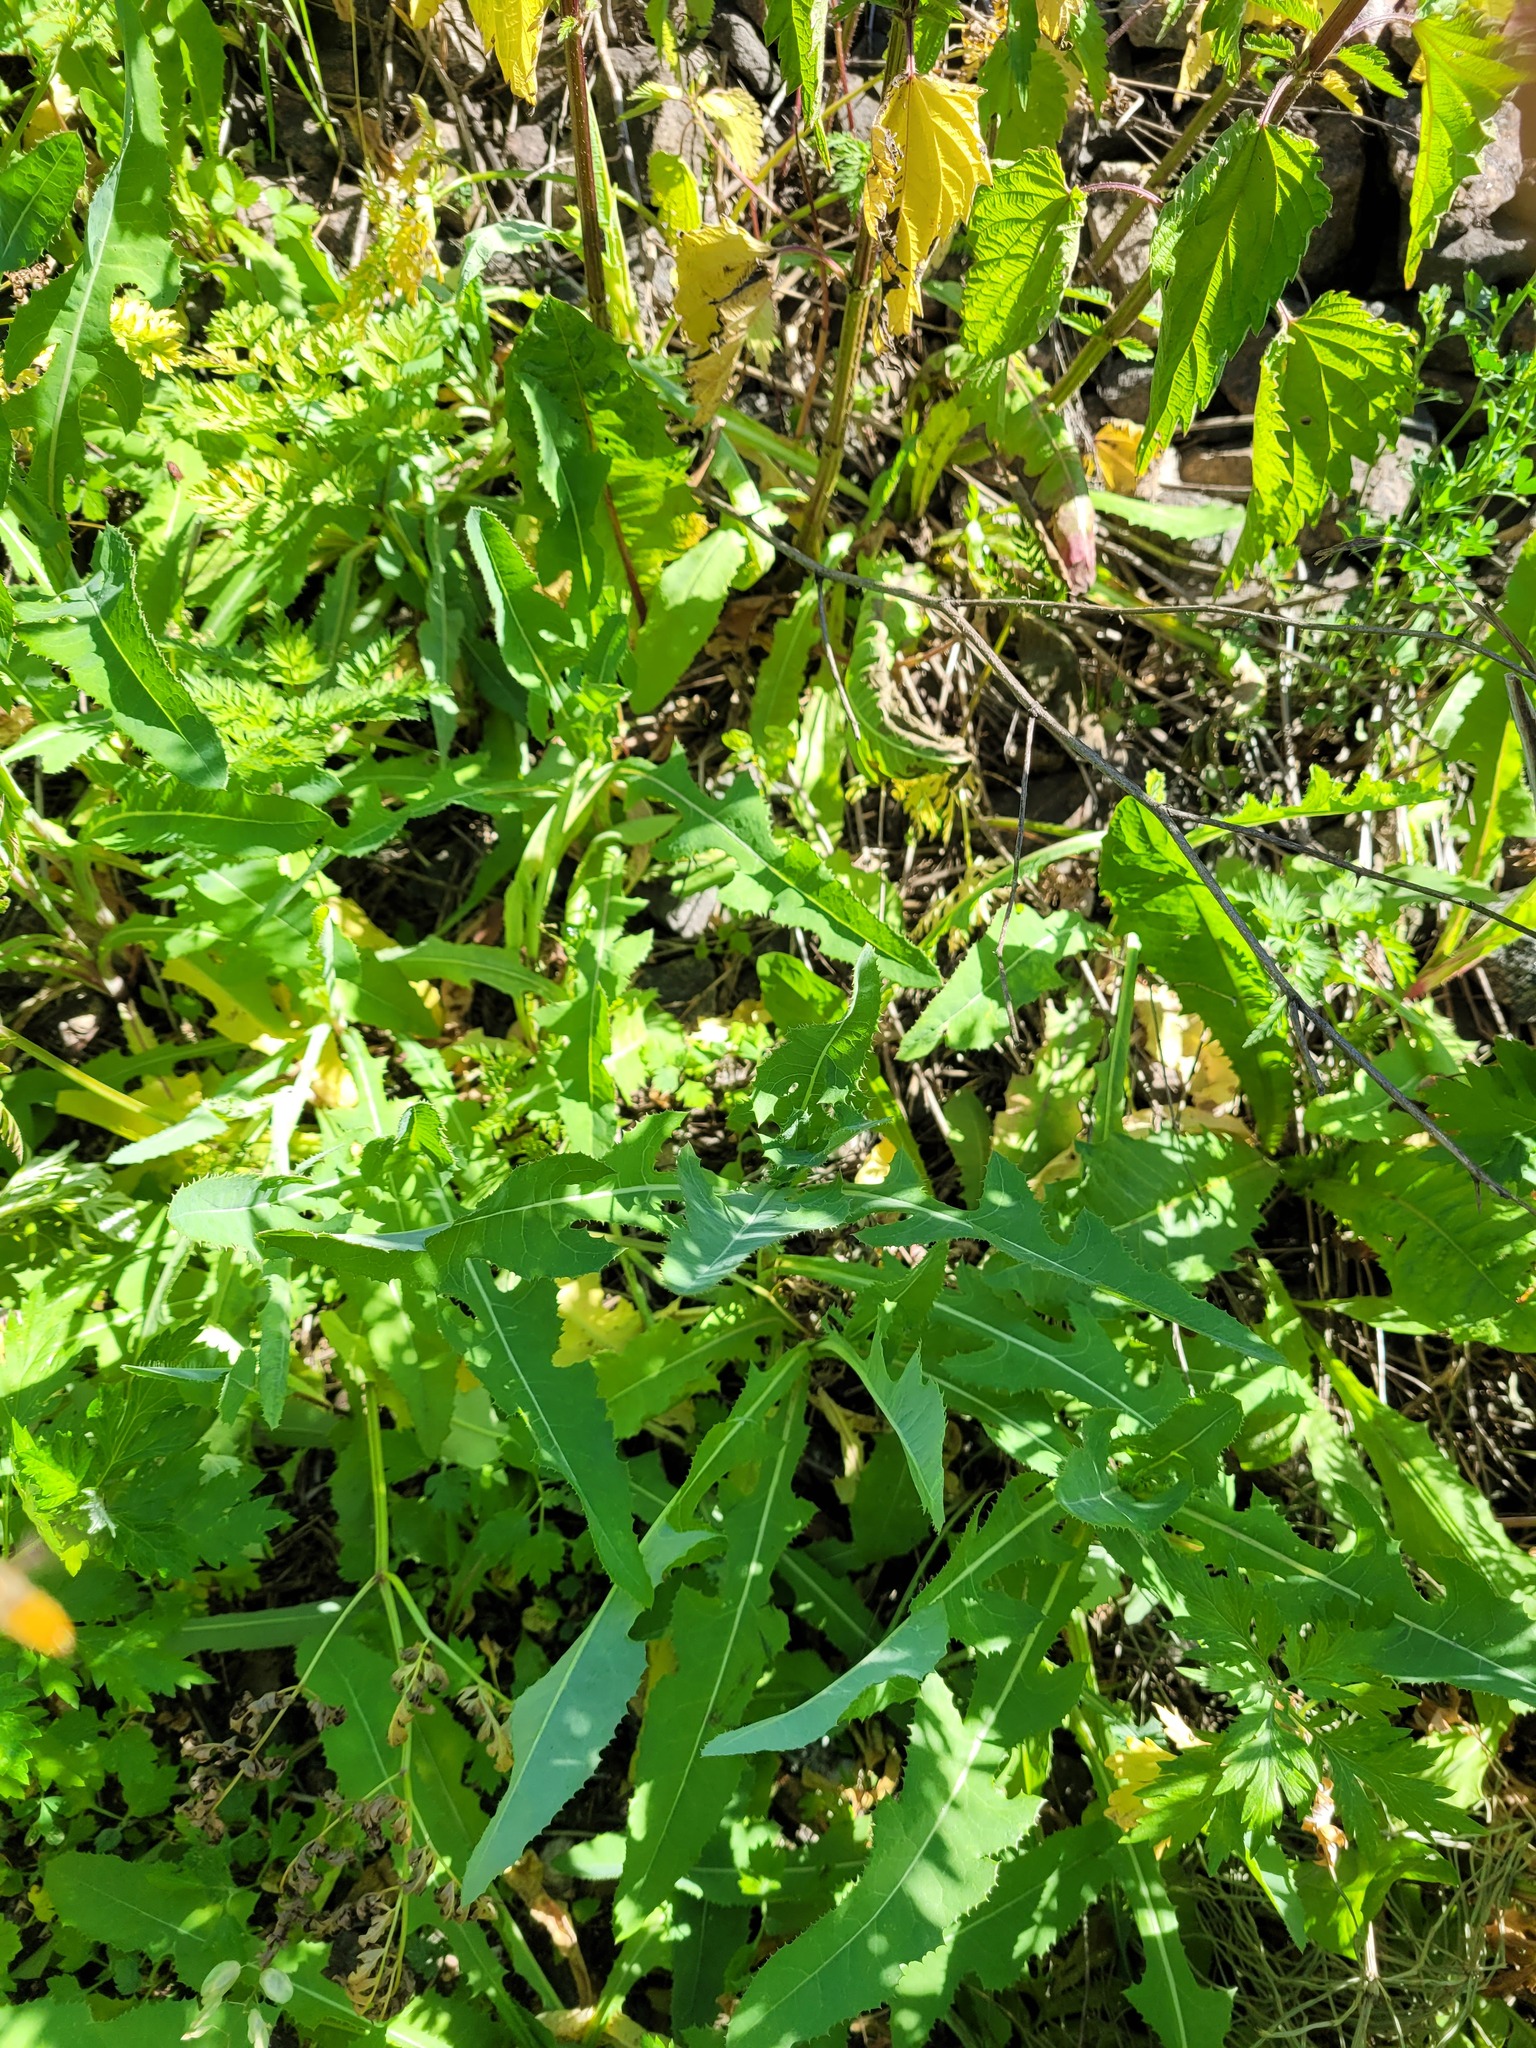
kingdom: Plantae
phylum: Tracheophyta
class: Magnoliopsida
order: Asterales
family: Asteraceae
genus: Sonchus
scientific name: Sonchus arvensis
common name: Perennial sow-thistle
